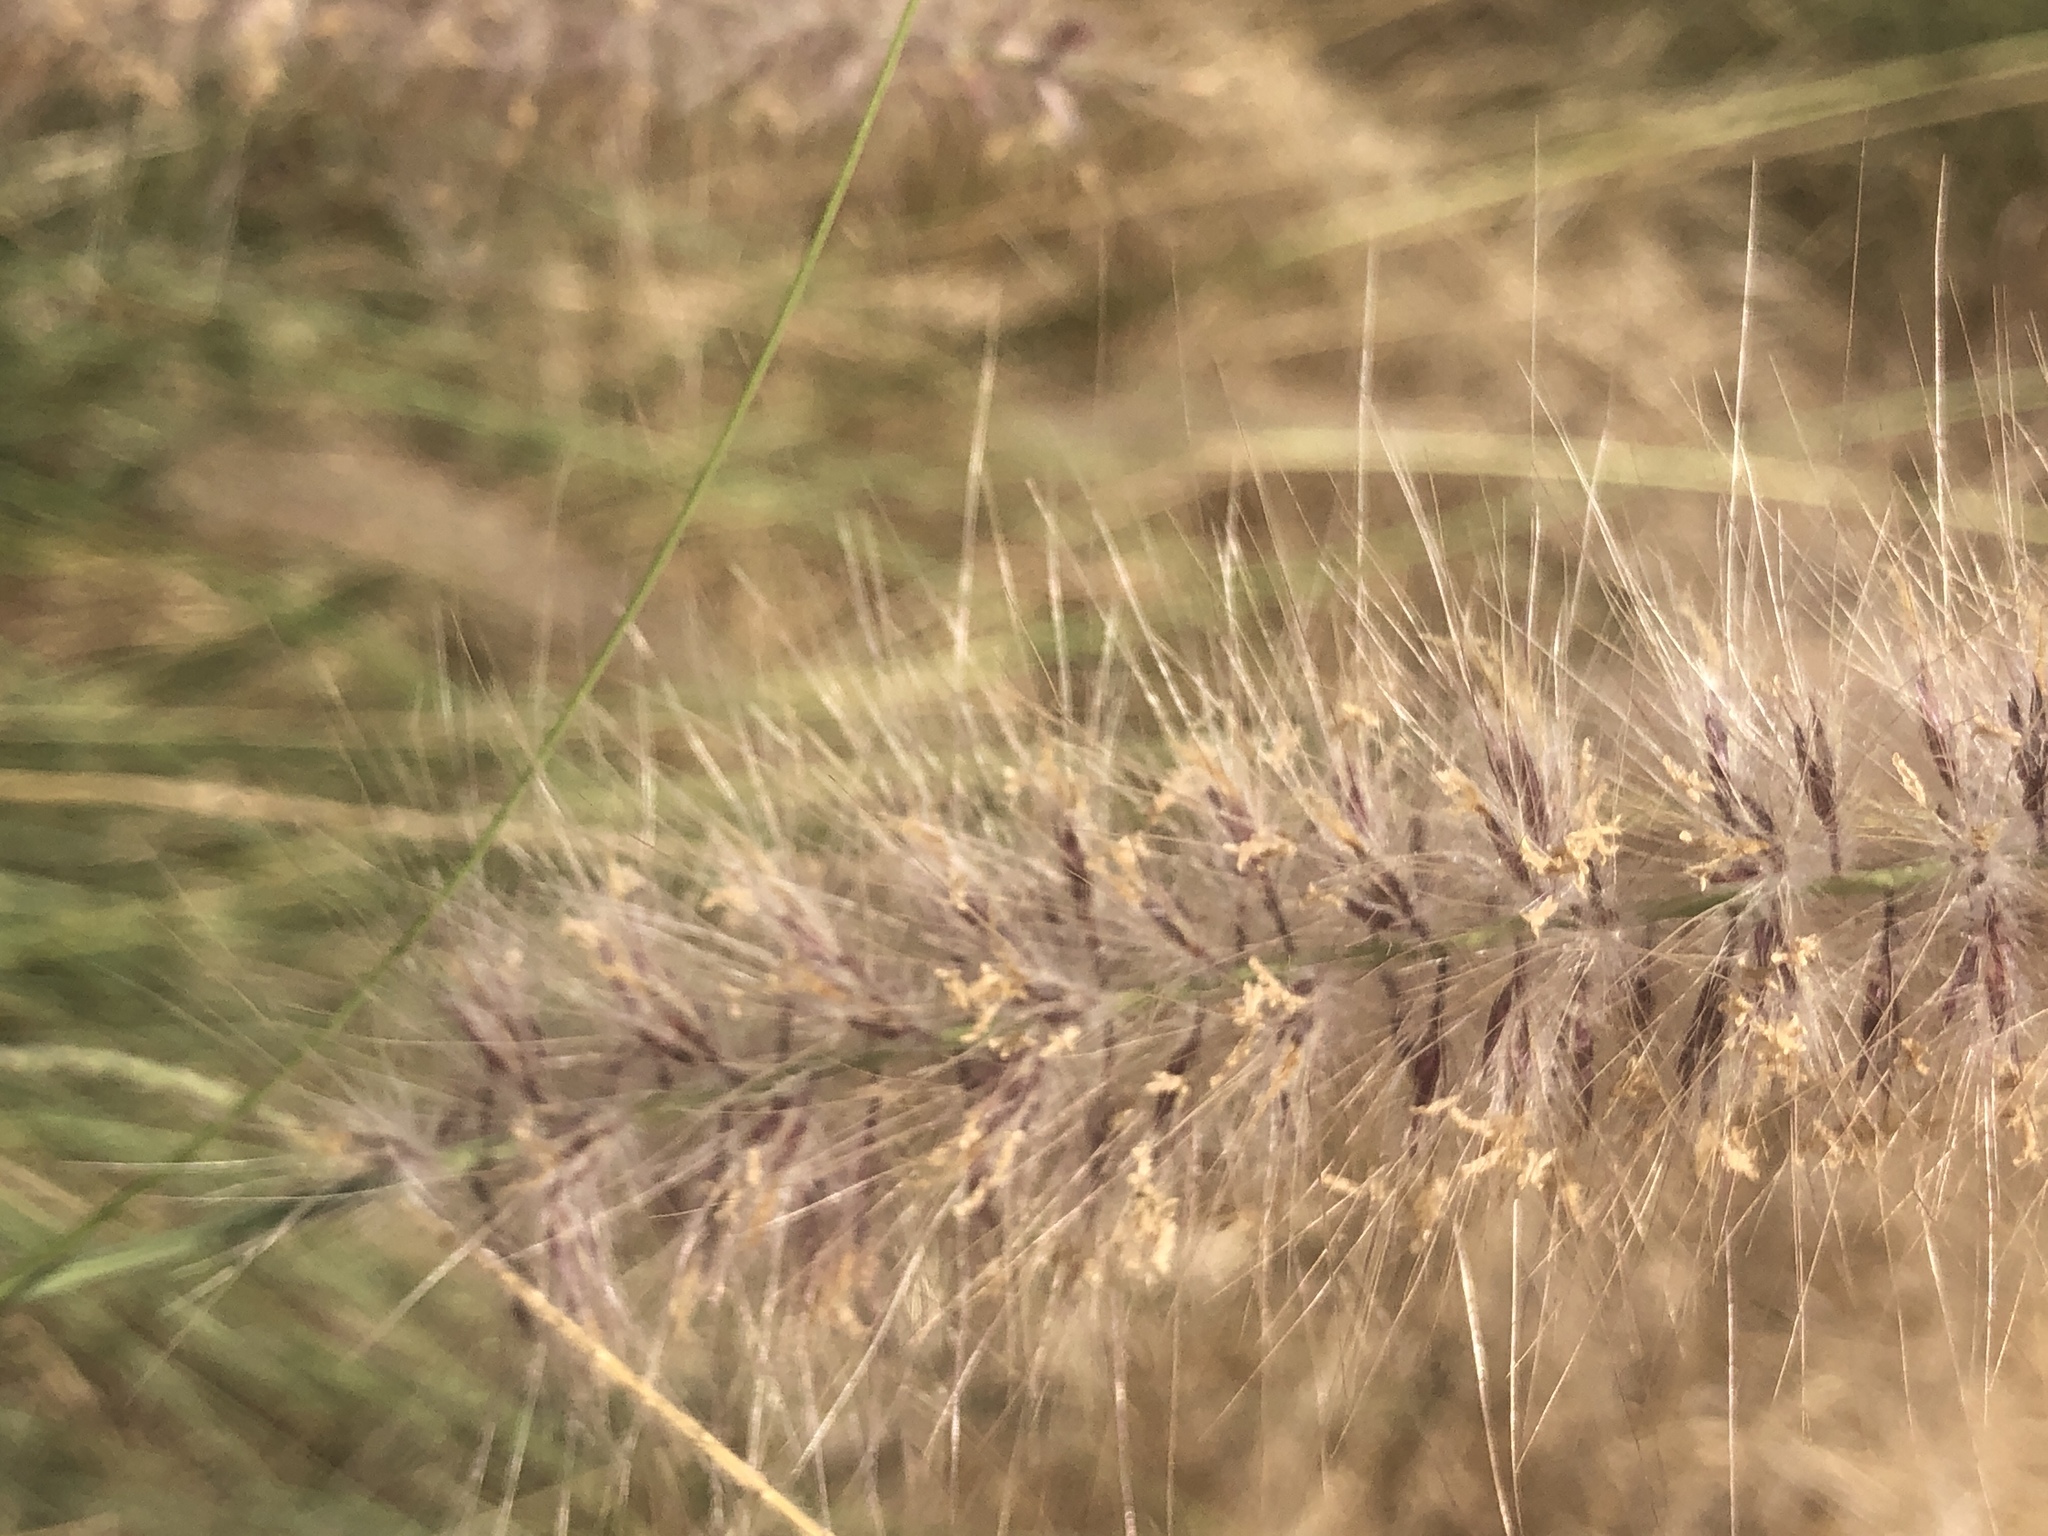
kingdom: Plantae
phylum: Tracheophyta
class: Liliopsida
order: Poales
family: Poaceae
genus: Cenchrus
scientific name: Cenchrus setaceus
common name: Crimson fountaingrass
